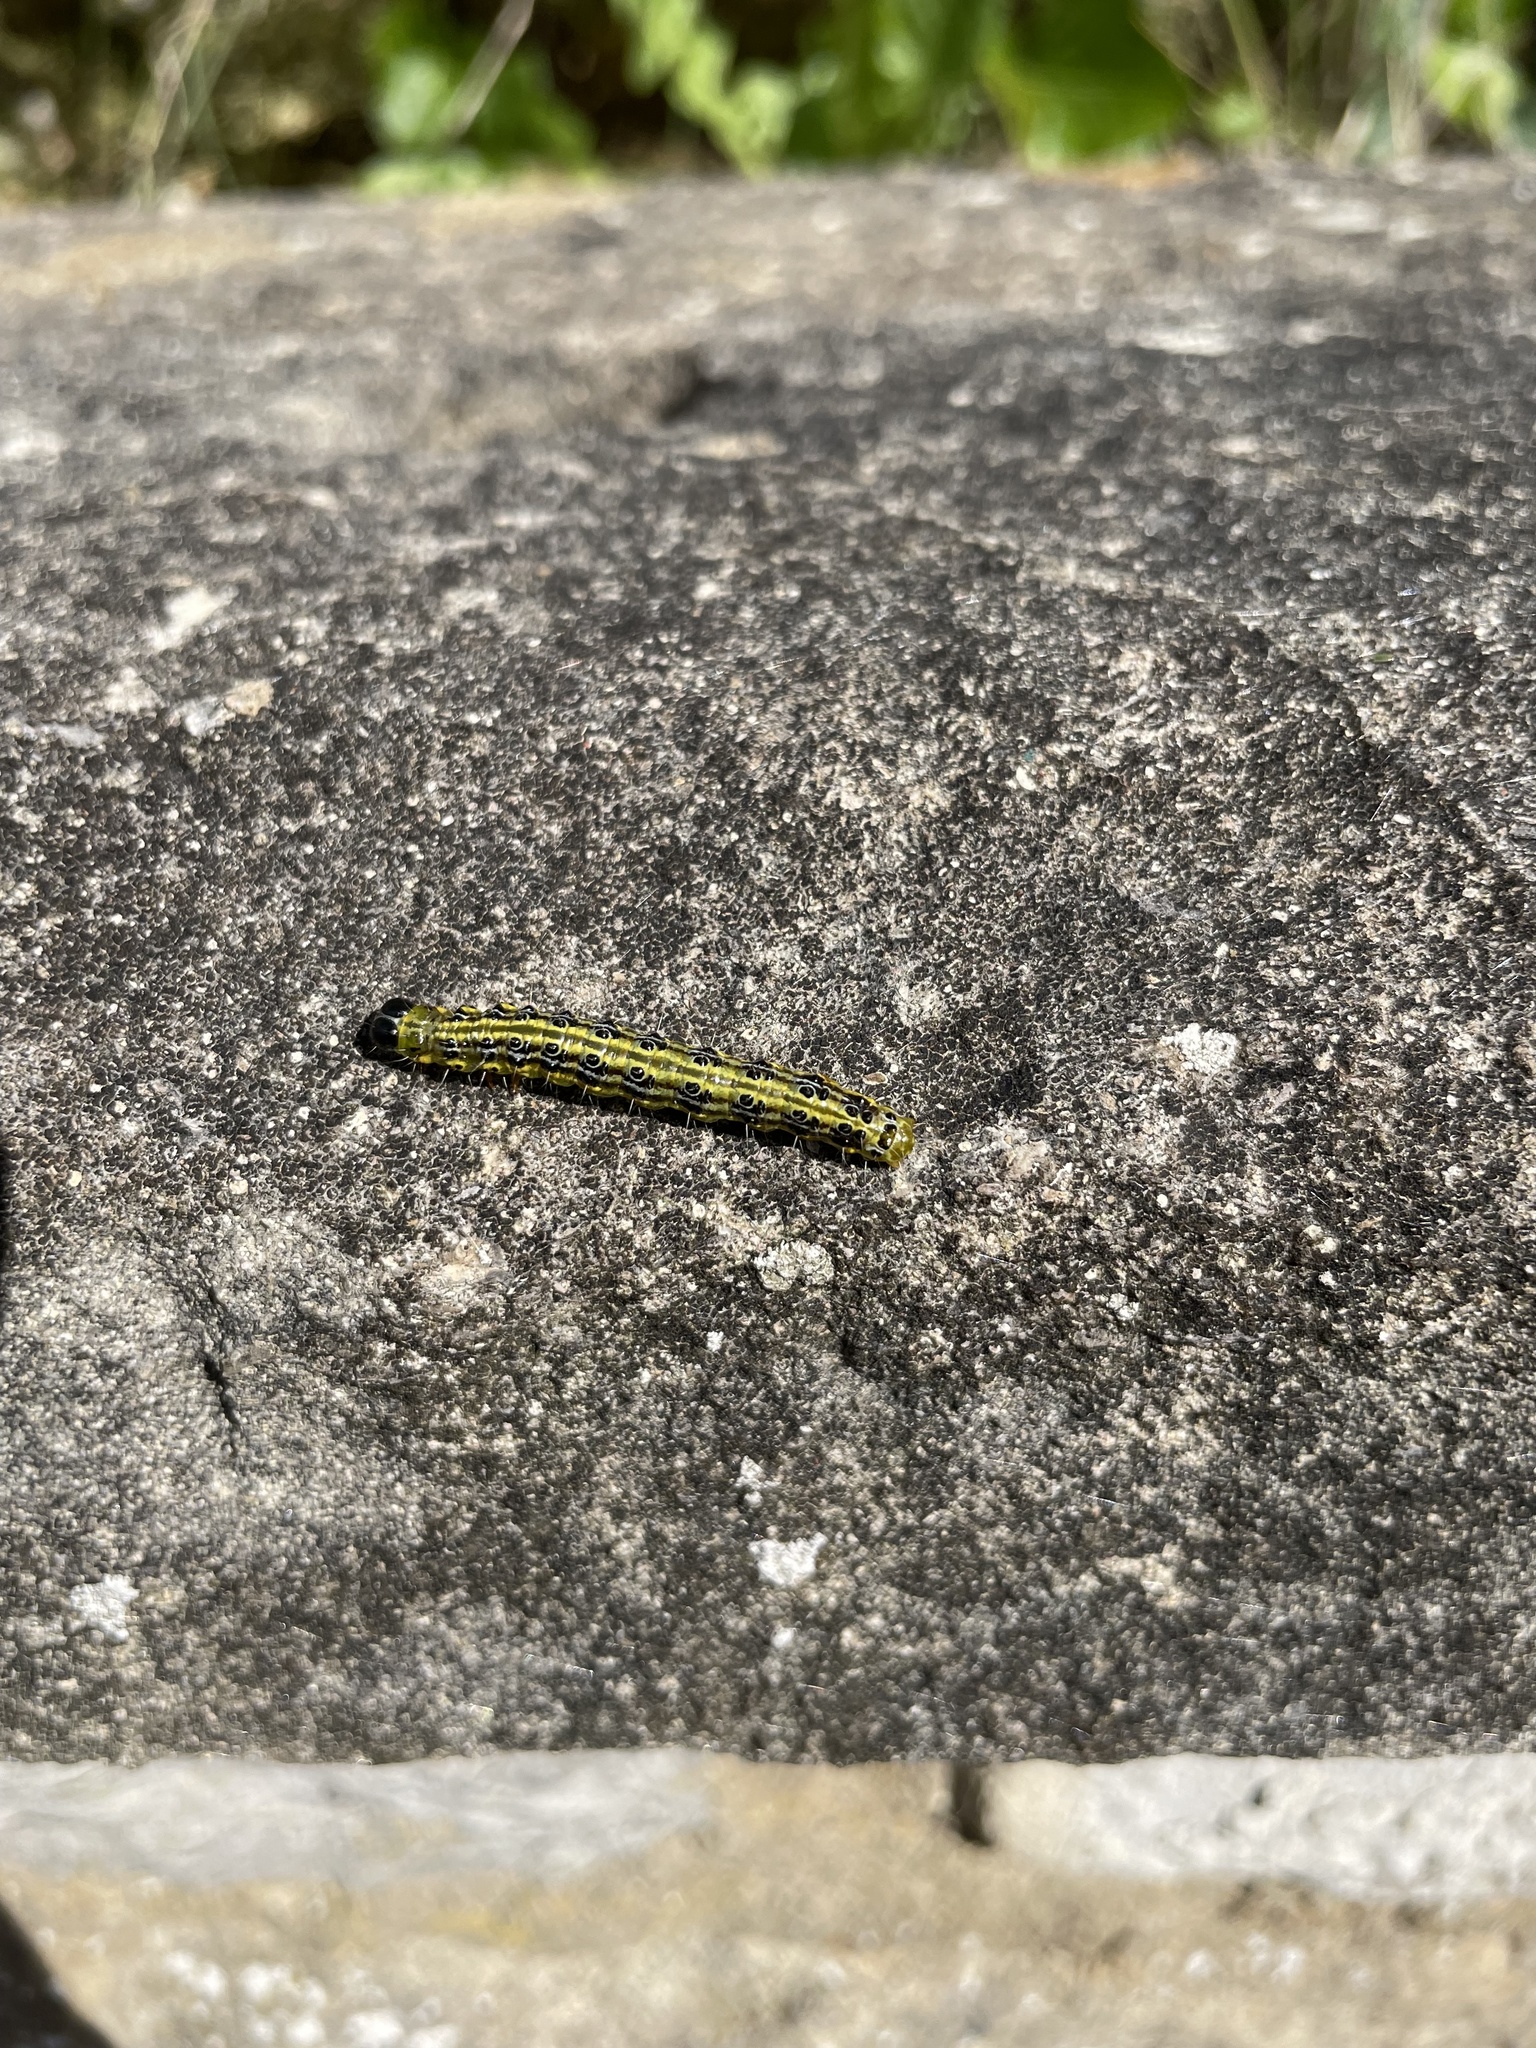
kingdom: Animalia
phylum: Arthropoda
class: Insecta
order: Lepidoptera
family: Crambidae
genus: Cydalima
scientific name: Cydalima perspectalis
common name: Box tree moth
